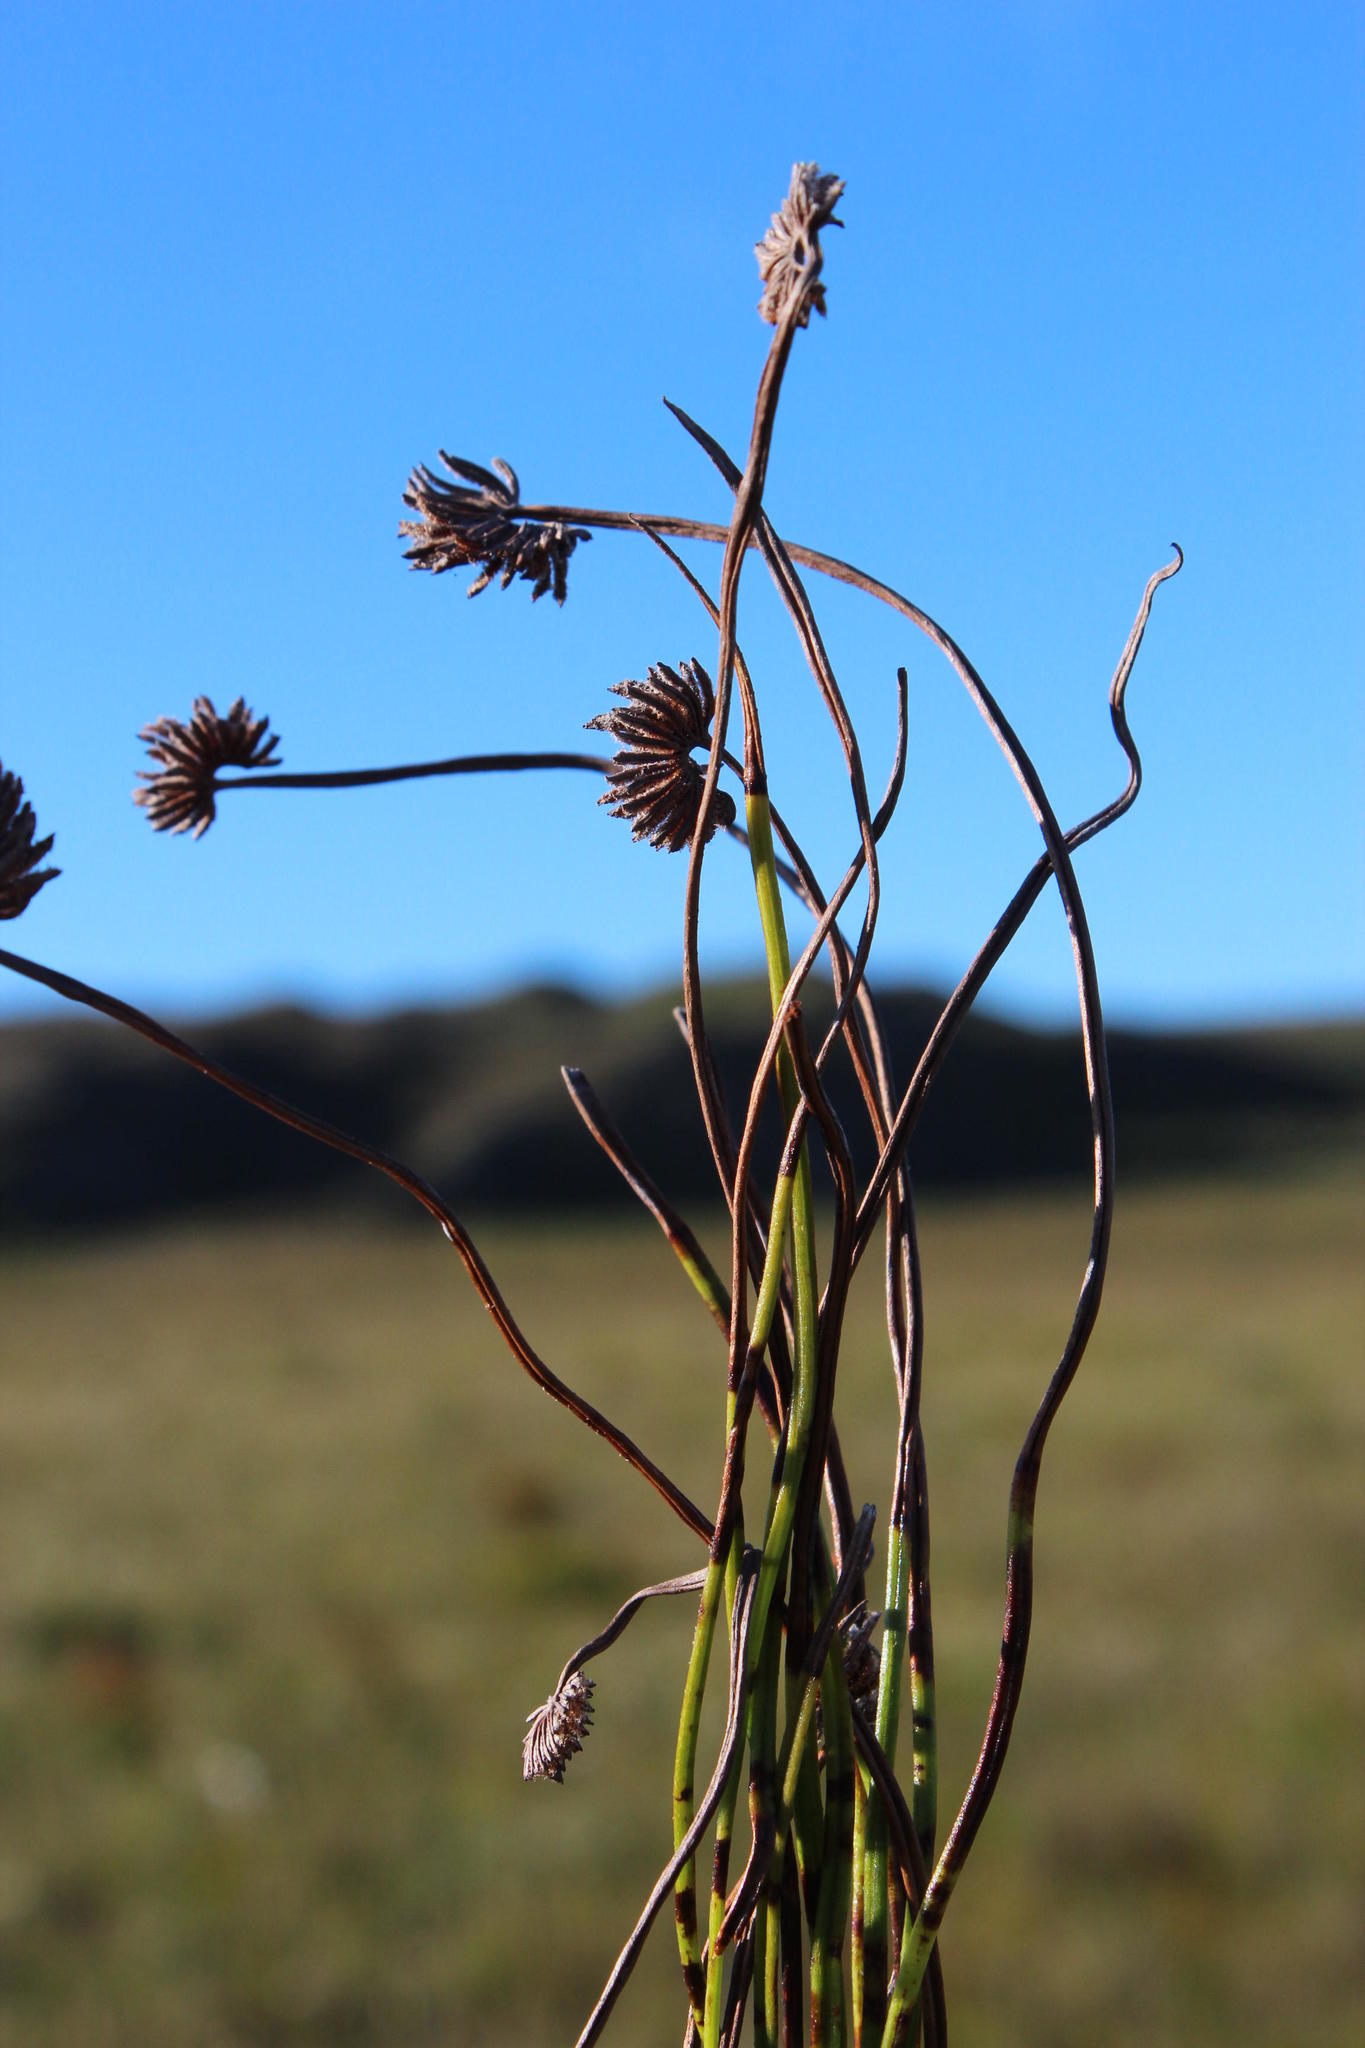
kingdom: Plantae
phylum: Tracheophyta
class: Polypodiopsida
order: Schizaeales
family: Schizaeaceae
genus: Schizaea
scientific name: Schizaea pectinata
